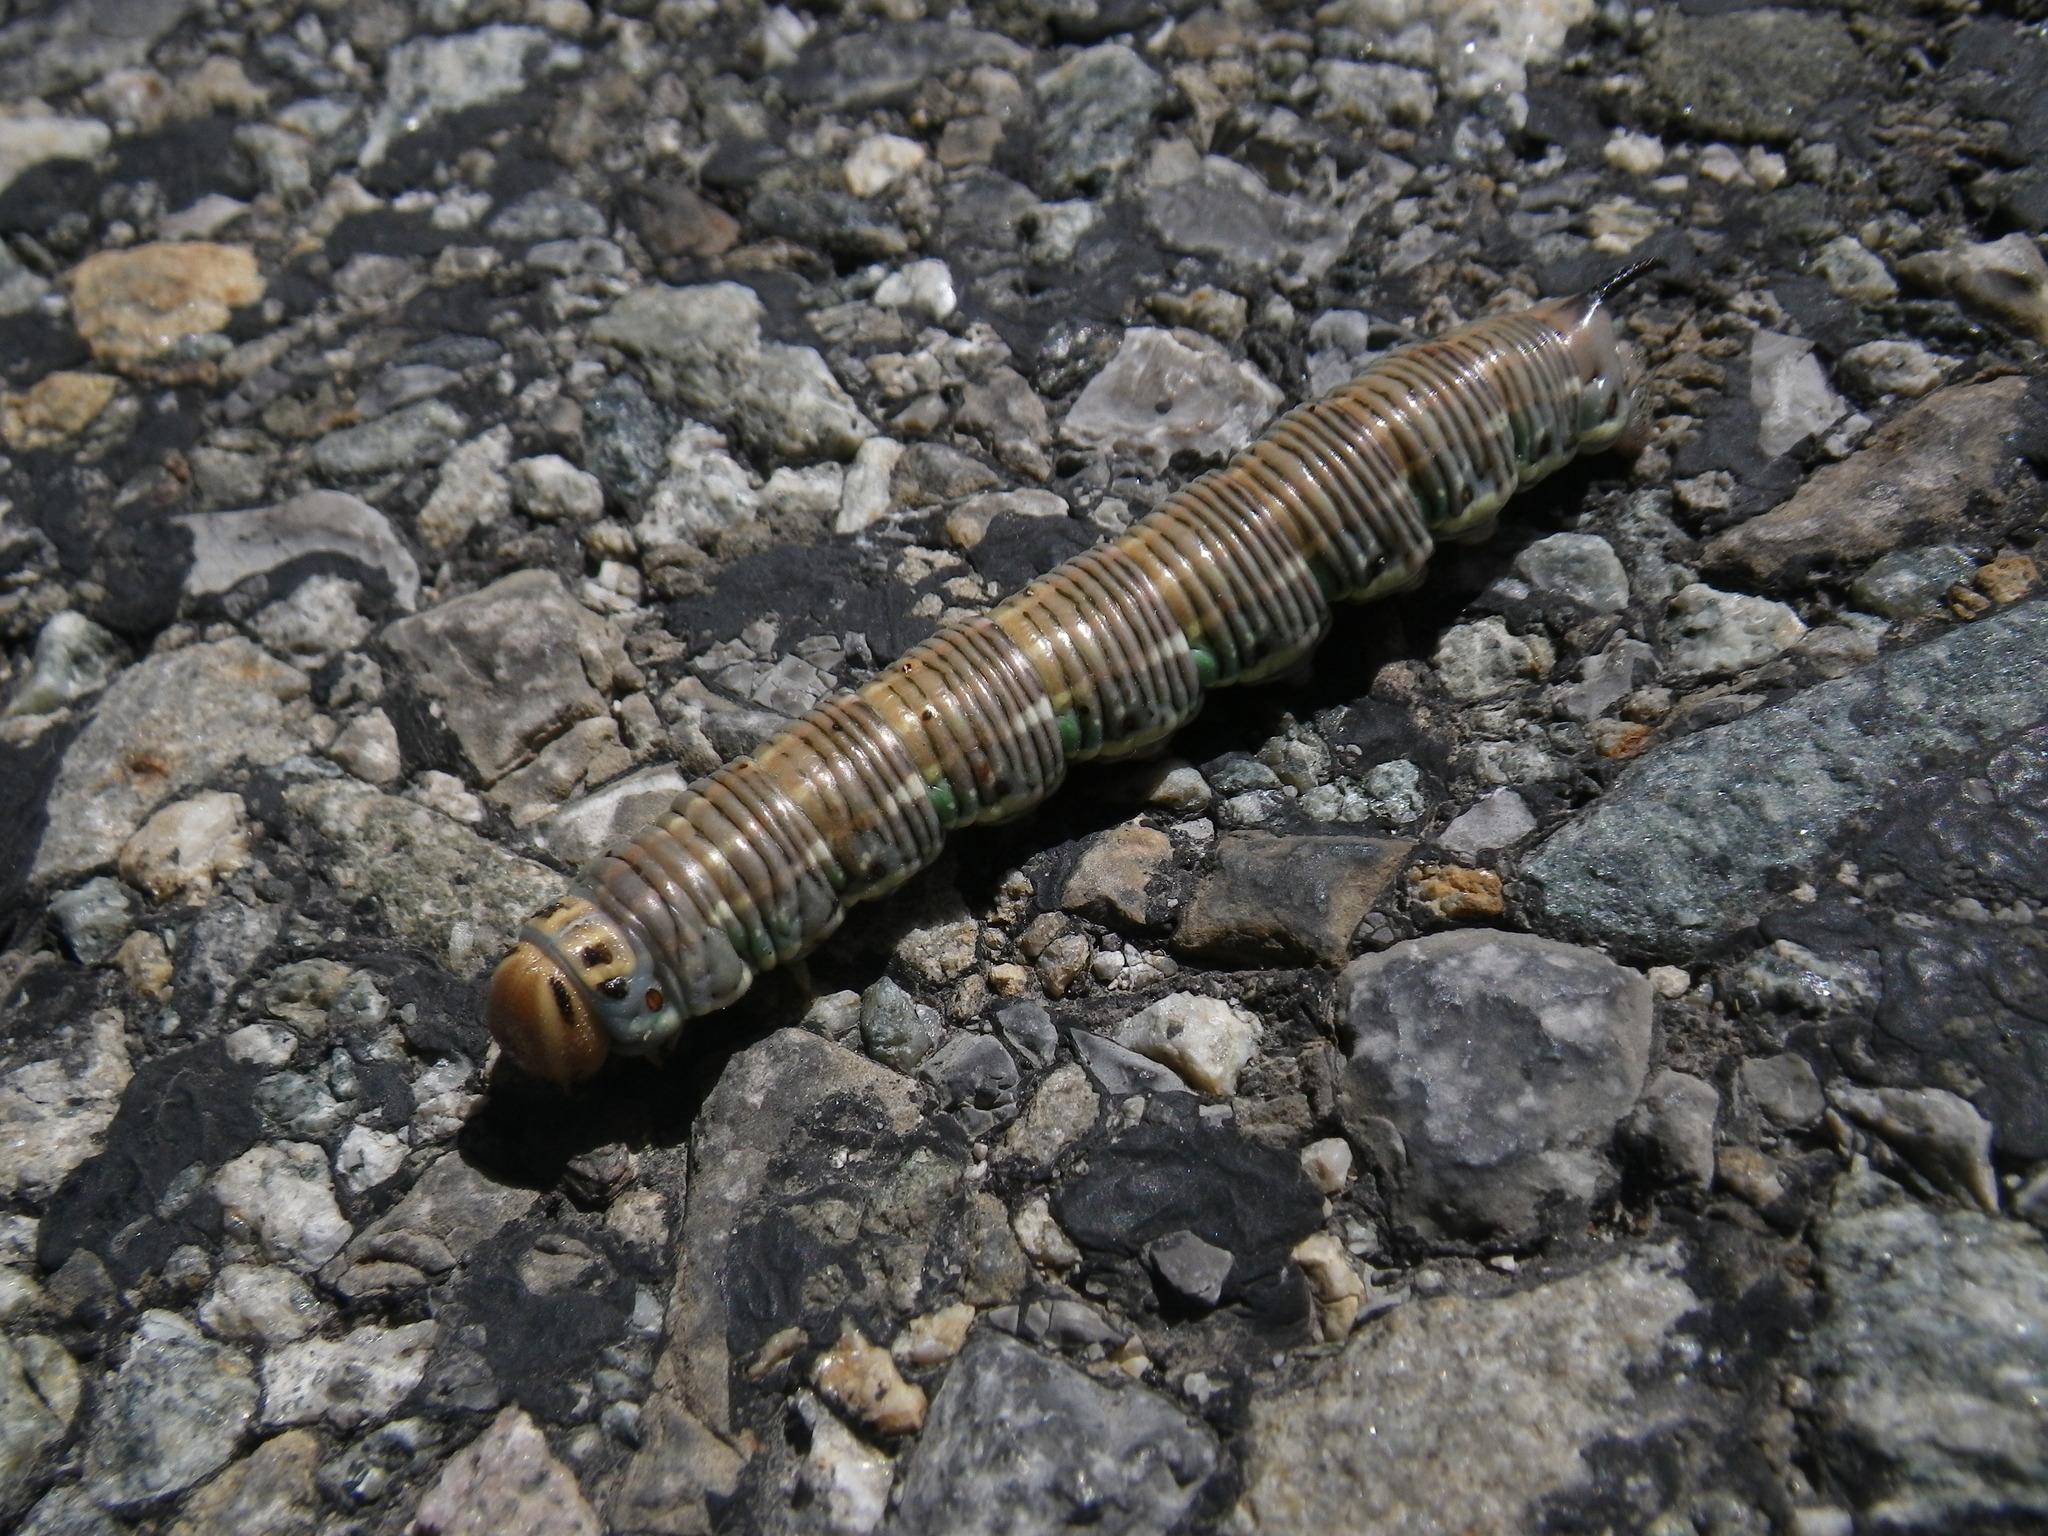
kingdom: Animalia
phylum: Arthropoda
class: Insecta
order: Lepidoptera
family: Sphingidae
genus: Sphinx
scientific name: Sphinx pinastri
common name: Pine hawk-moth
